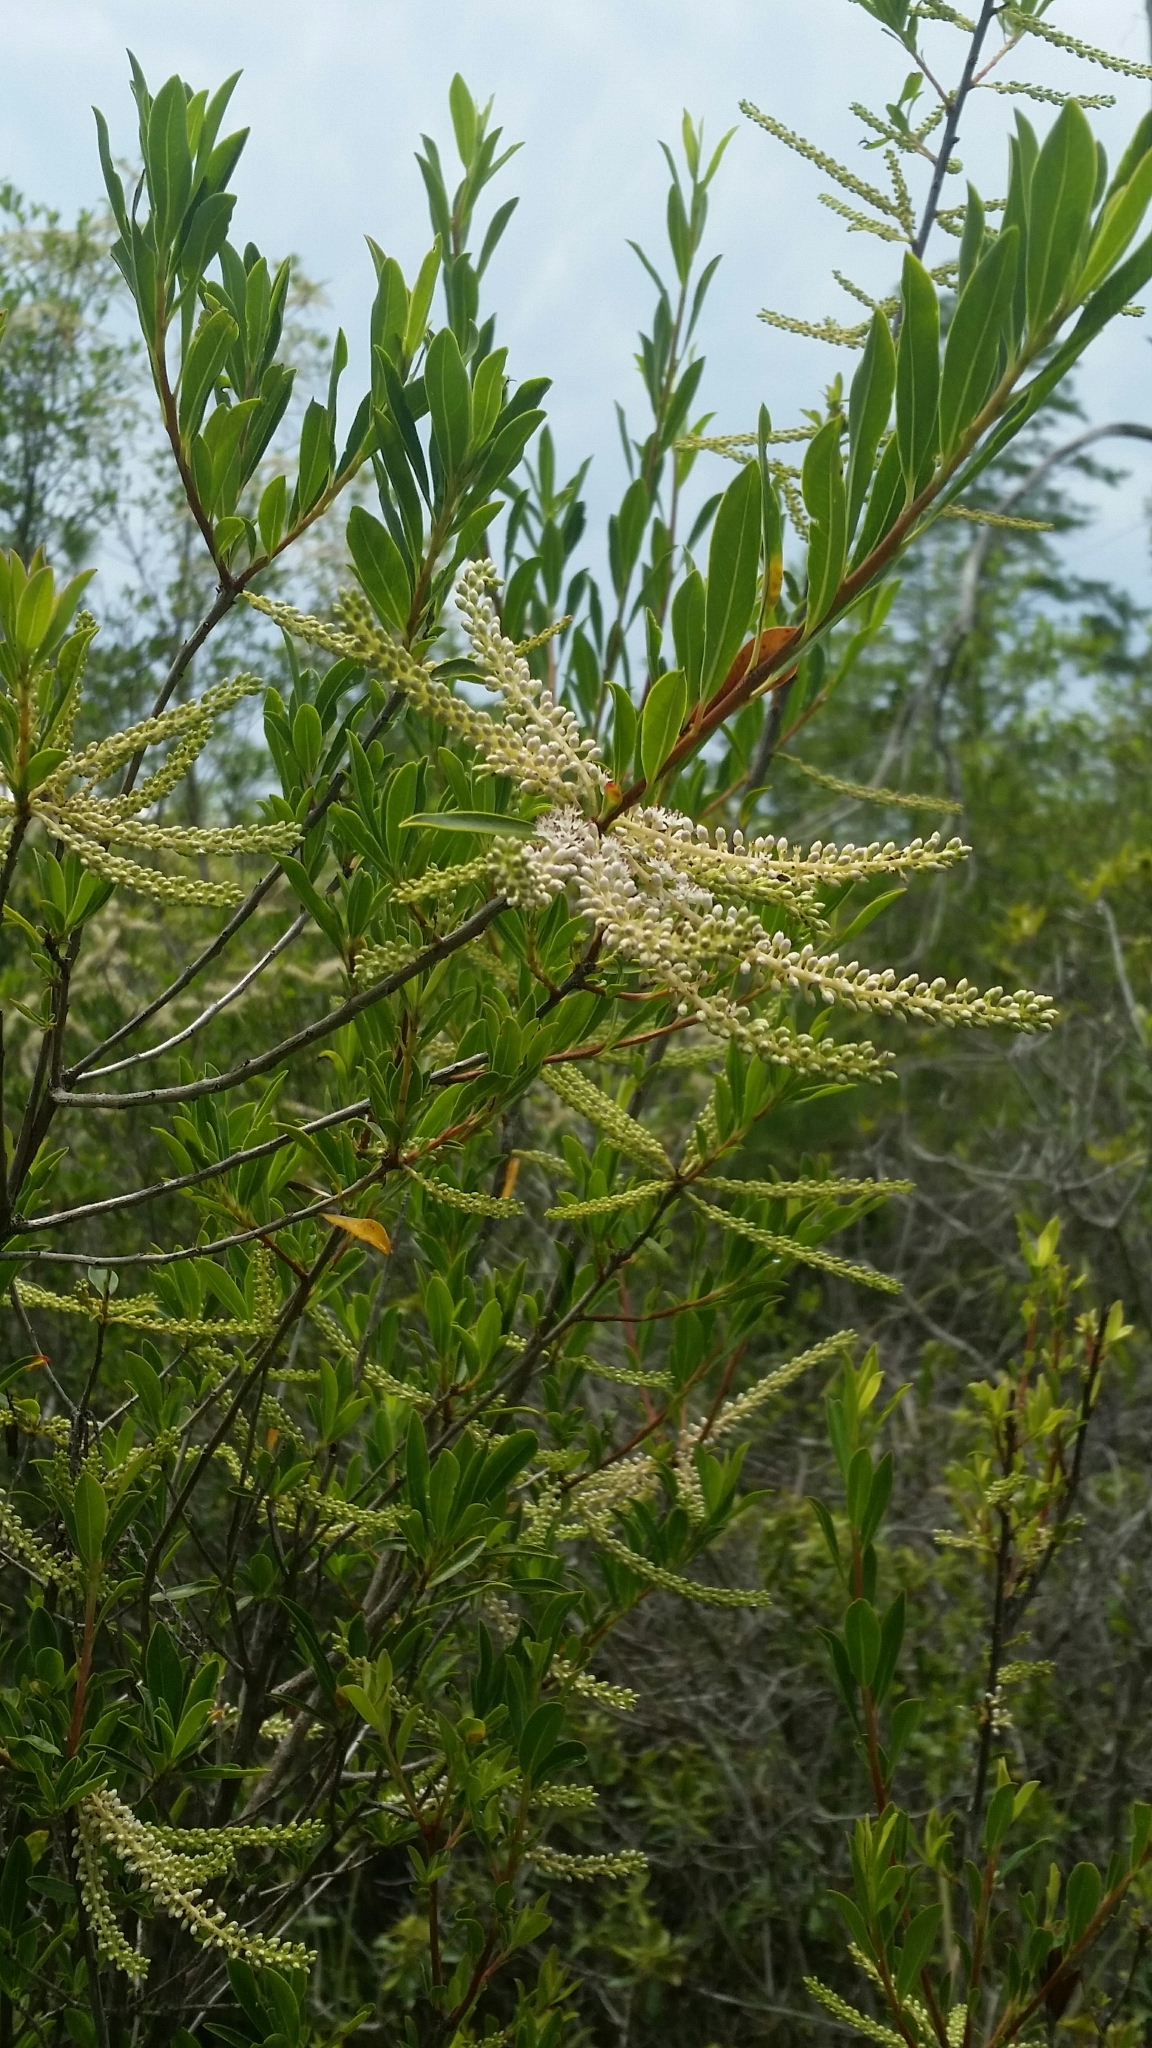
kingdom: Plantae
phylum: Tracheophyta
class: Magnoliopsida
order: Ericales
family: Cyrillaceae
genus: Cyrilla
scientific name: Cyrilla racemiflora
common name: Black titi
